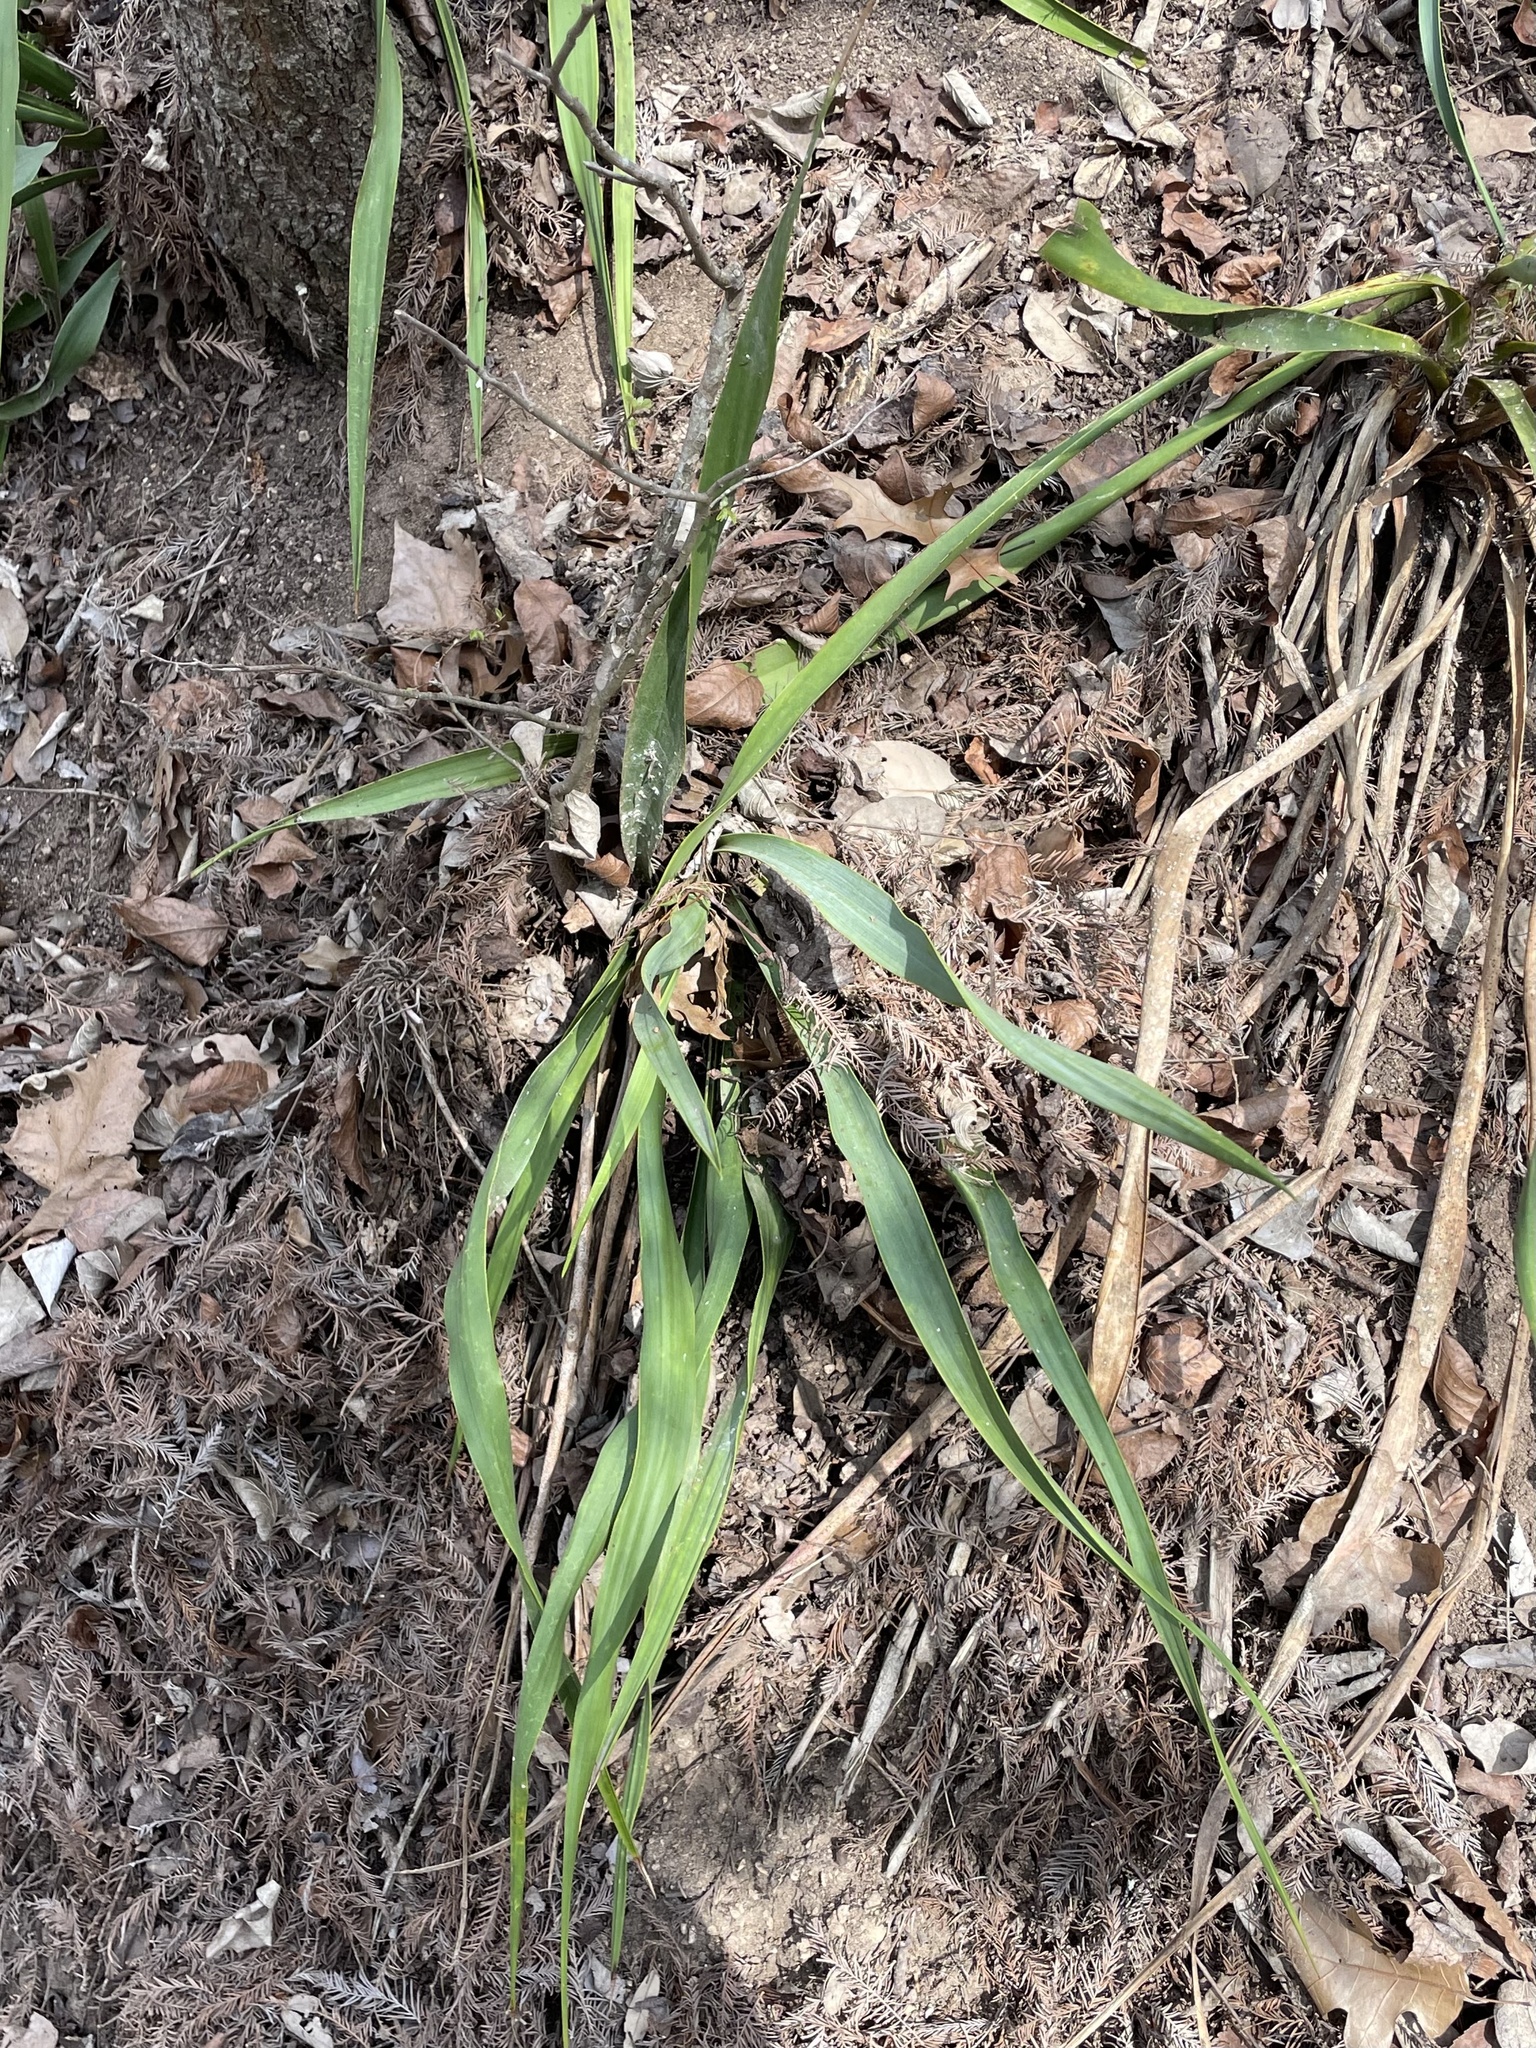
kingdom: Plantae
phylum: Tracheophyta
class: Liliopsida
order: Asparagales
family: Asparagaceae
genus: Yucca
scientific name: Yucca rupicola
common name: Twisted-leaf spanish-dagger
